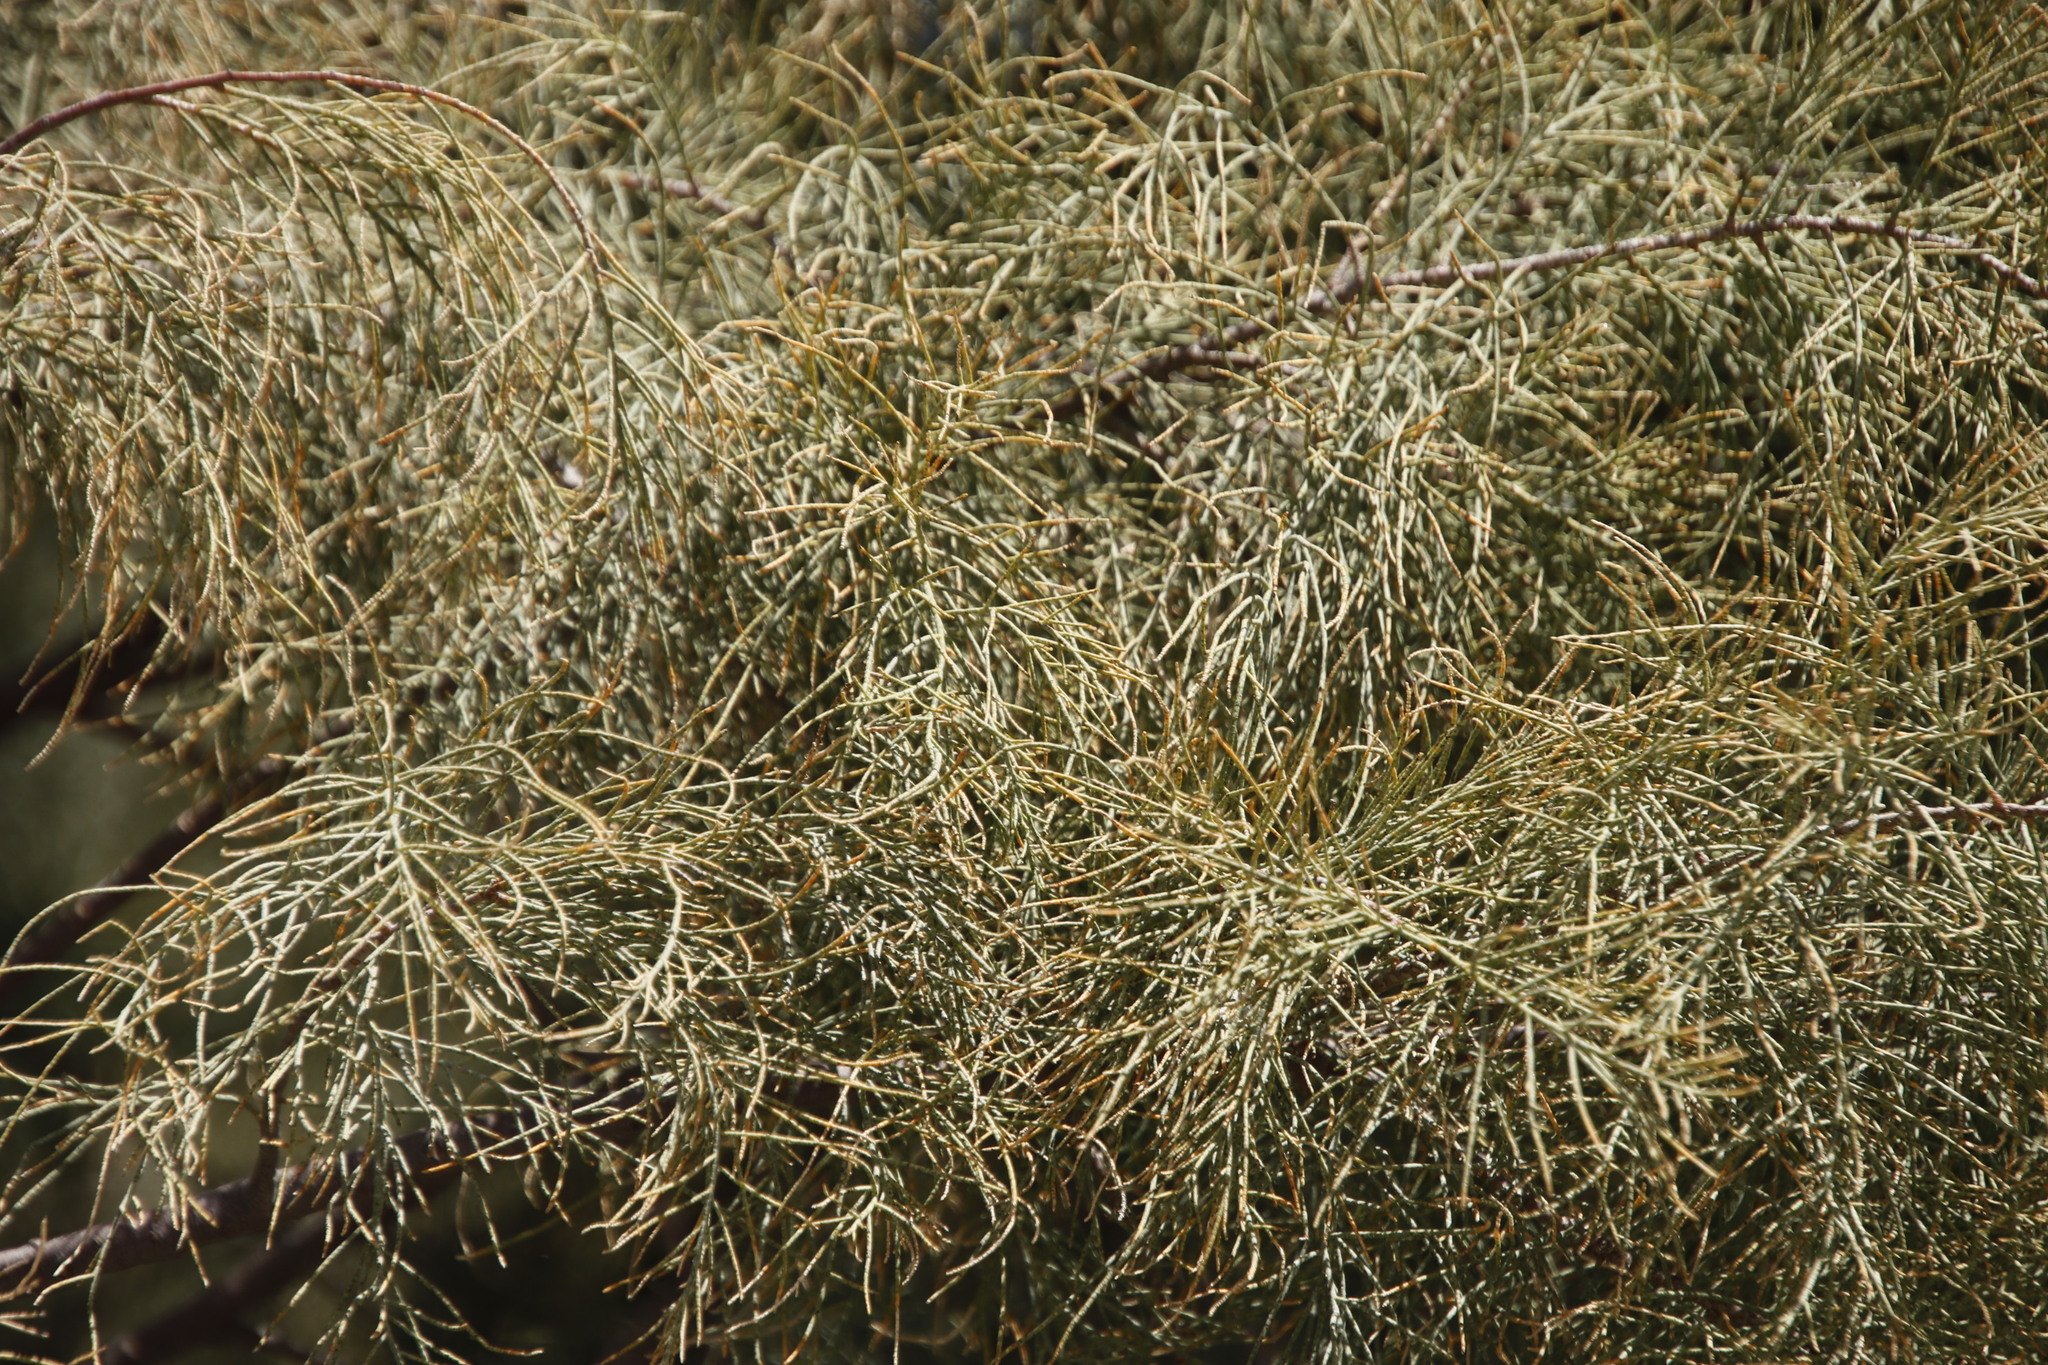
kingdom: Plantae
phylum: Tracheophyta
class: Magnoliopsida
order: Caryophyllales
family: Tamaricaceae
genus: Tamarix
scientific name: Tamarix usneoides
